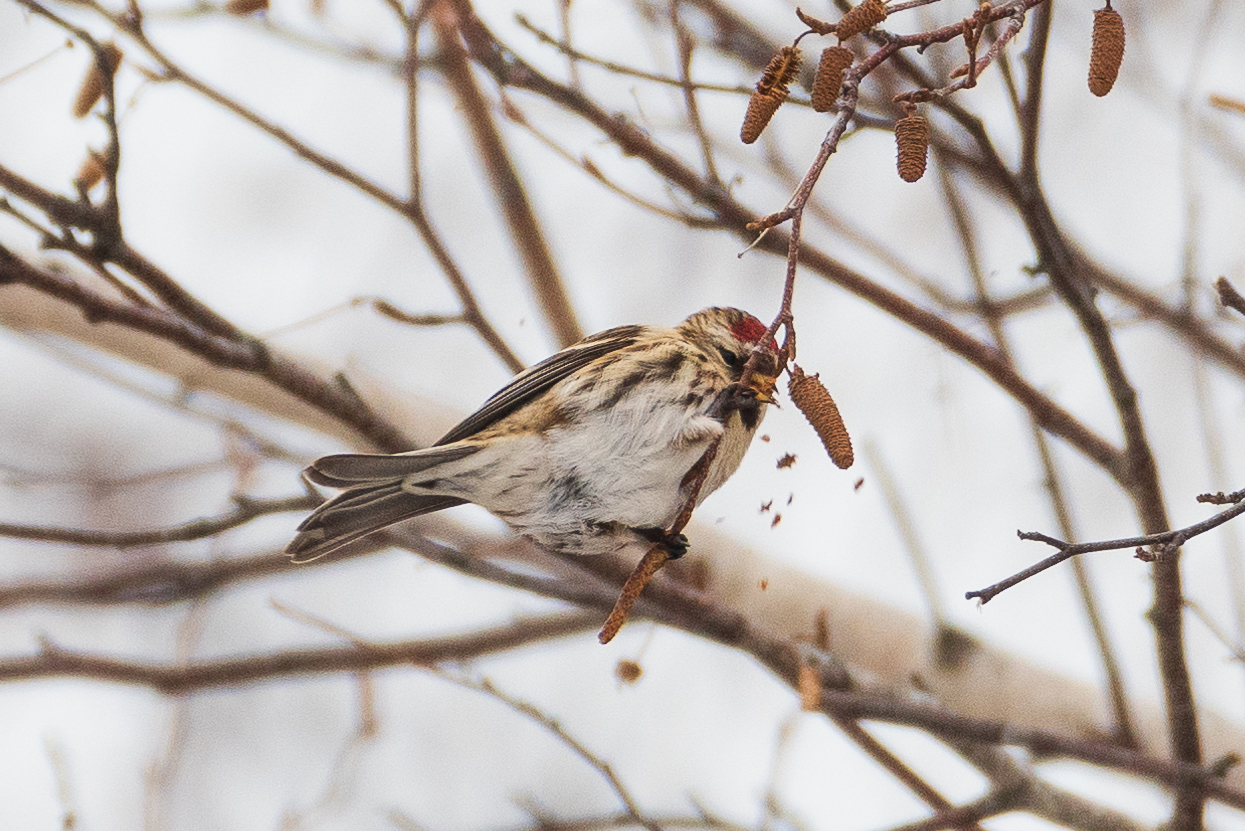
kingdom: Animalia
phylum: Chordata
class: Aves
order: Passeriformes
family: Fringillidae
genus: Acanthis
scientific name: Acanthis flammea
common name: Common redpoll
